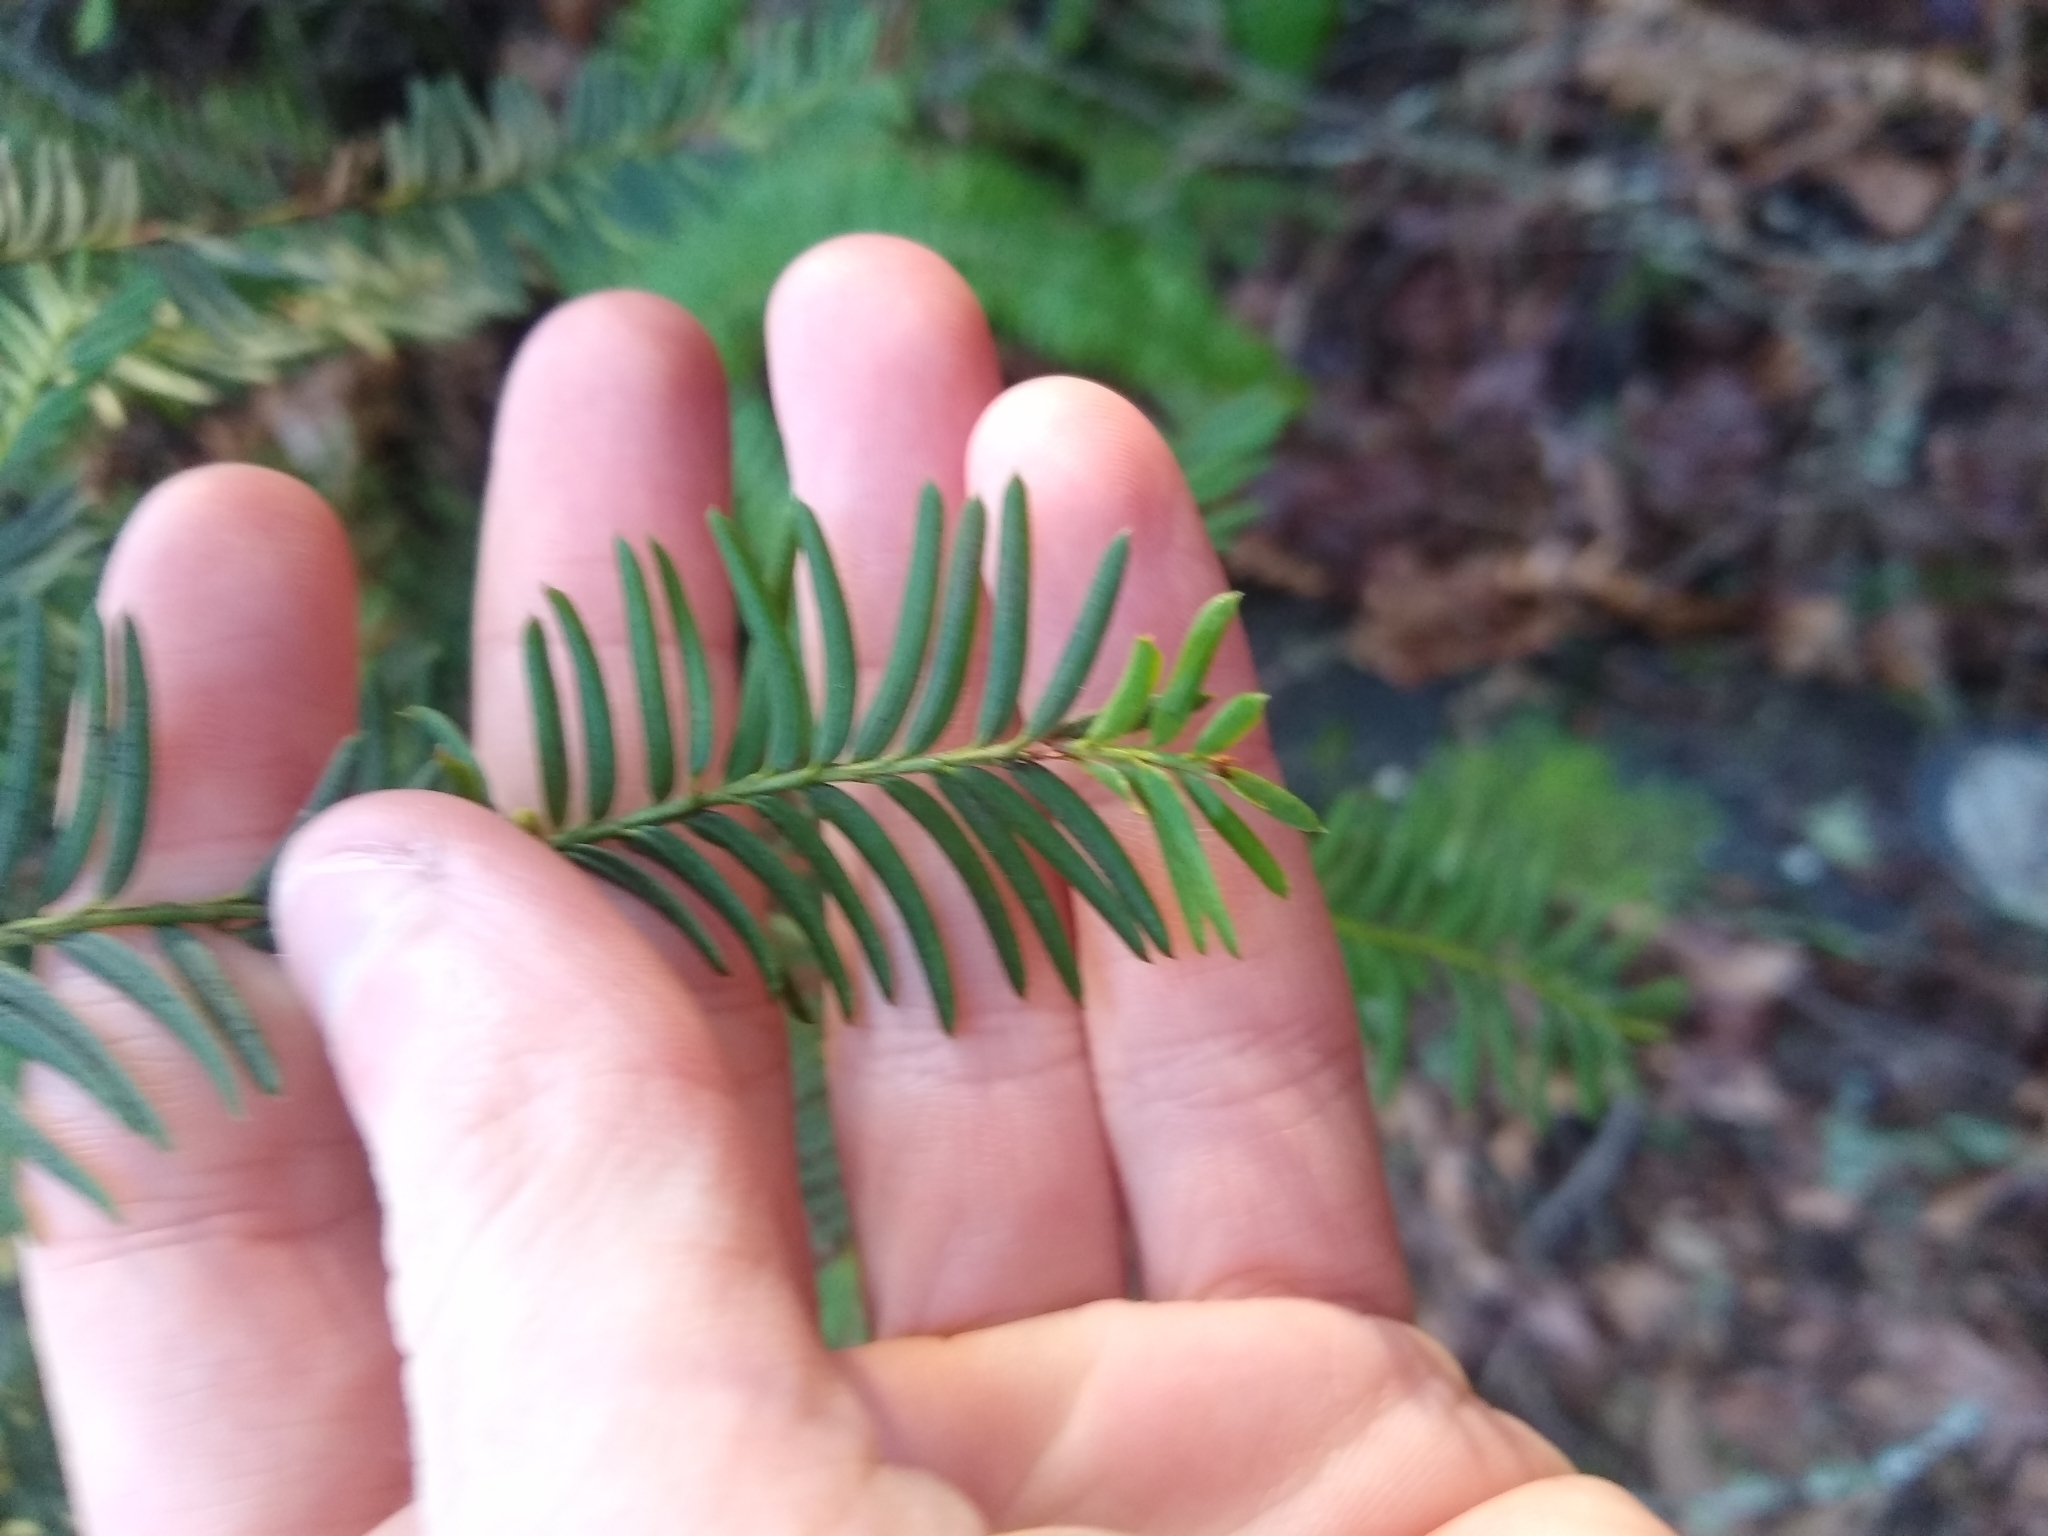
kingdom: Plantae
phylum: Tracheophyta
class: Pinopsida
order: Pinales
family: Taxaceae
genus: Taxus
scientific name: Taxus brevifolia
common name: Pacific yew
